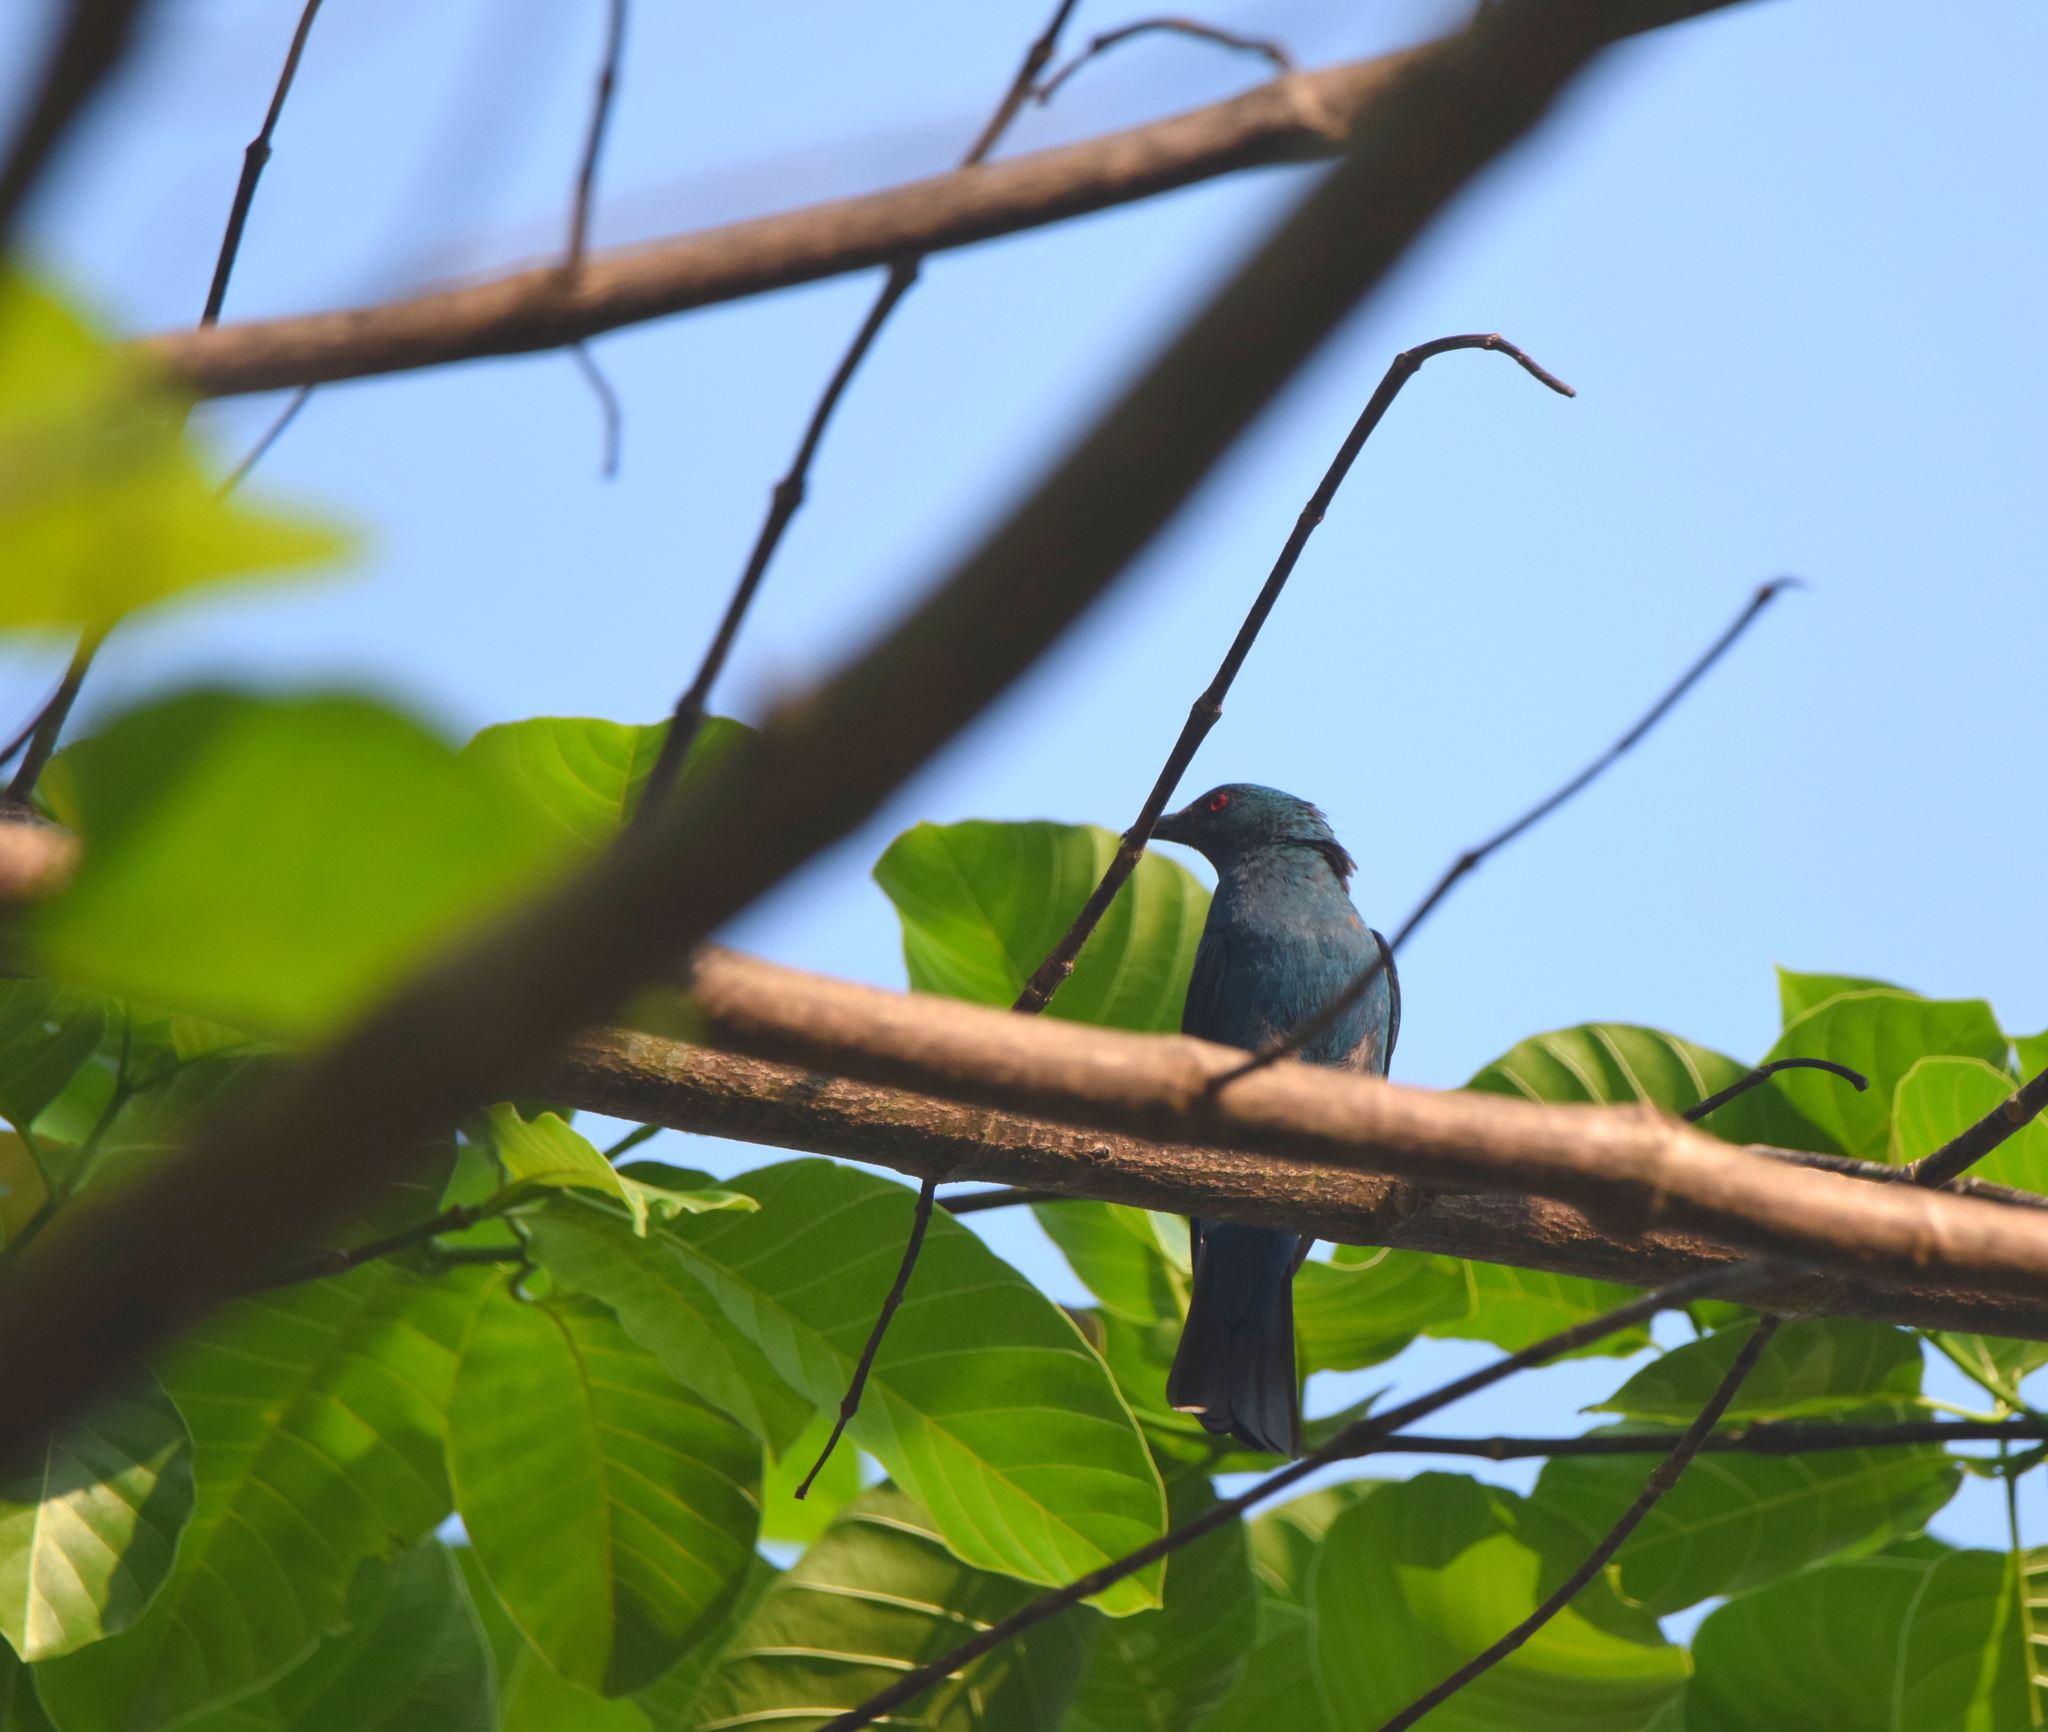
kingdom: Animalia
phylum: Chordata
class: Aves
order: Passeriformes
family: Irenidae
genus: Irena
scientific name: Irena puella
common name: Asian fairy-bluebird
